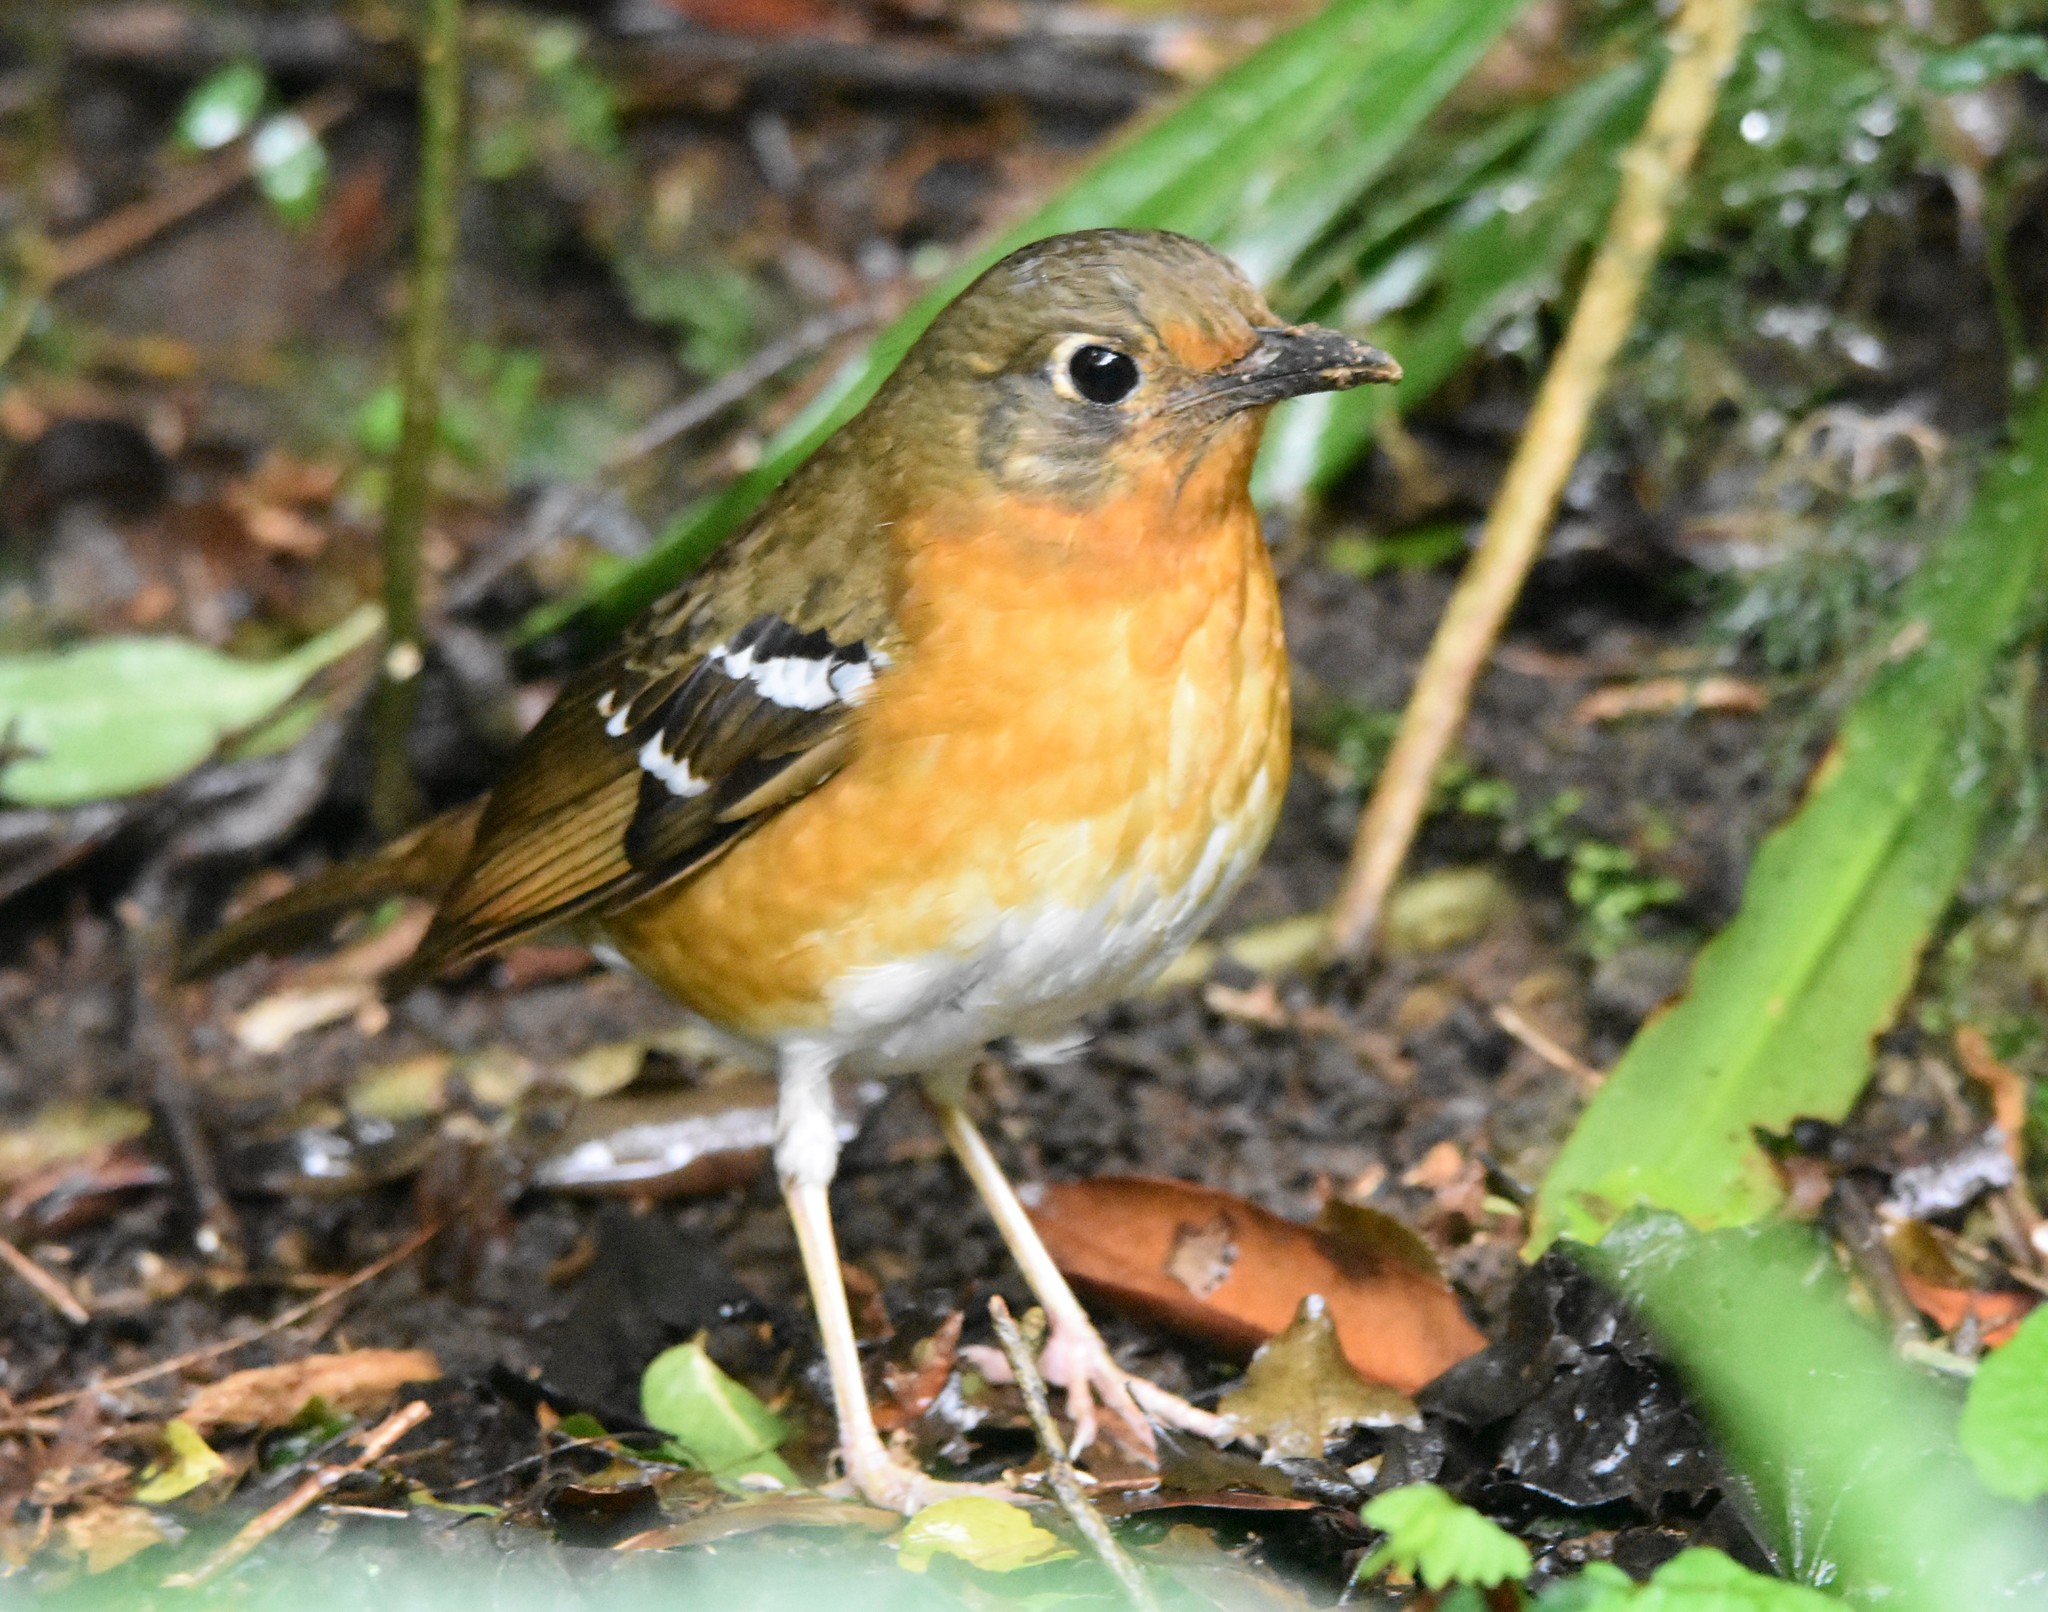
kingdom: Animalia
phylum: Chordata
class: Aves
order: Passeriformes
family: Turdidae
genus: Geokichla
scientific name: Geokichla gurneyi
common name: Orange ground-thrush
